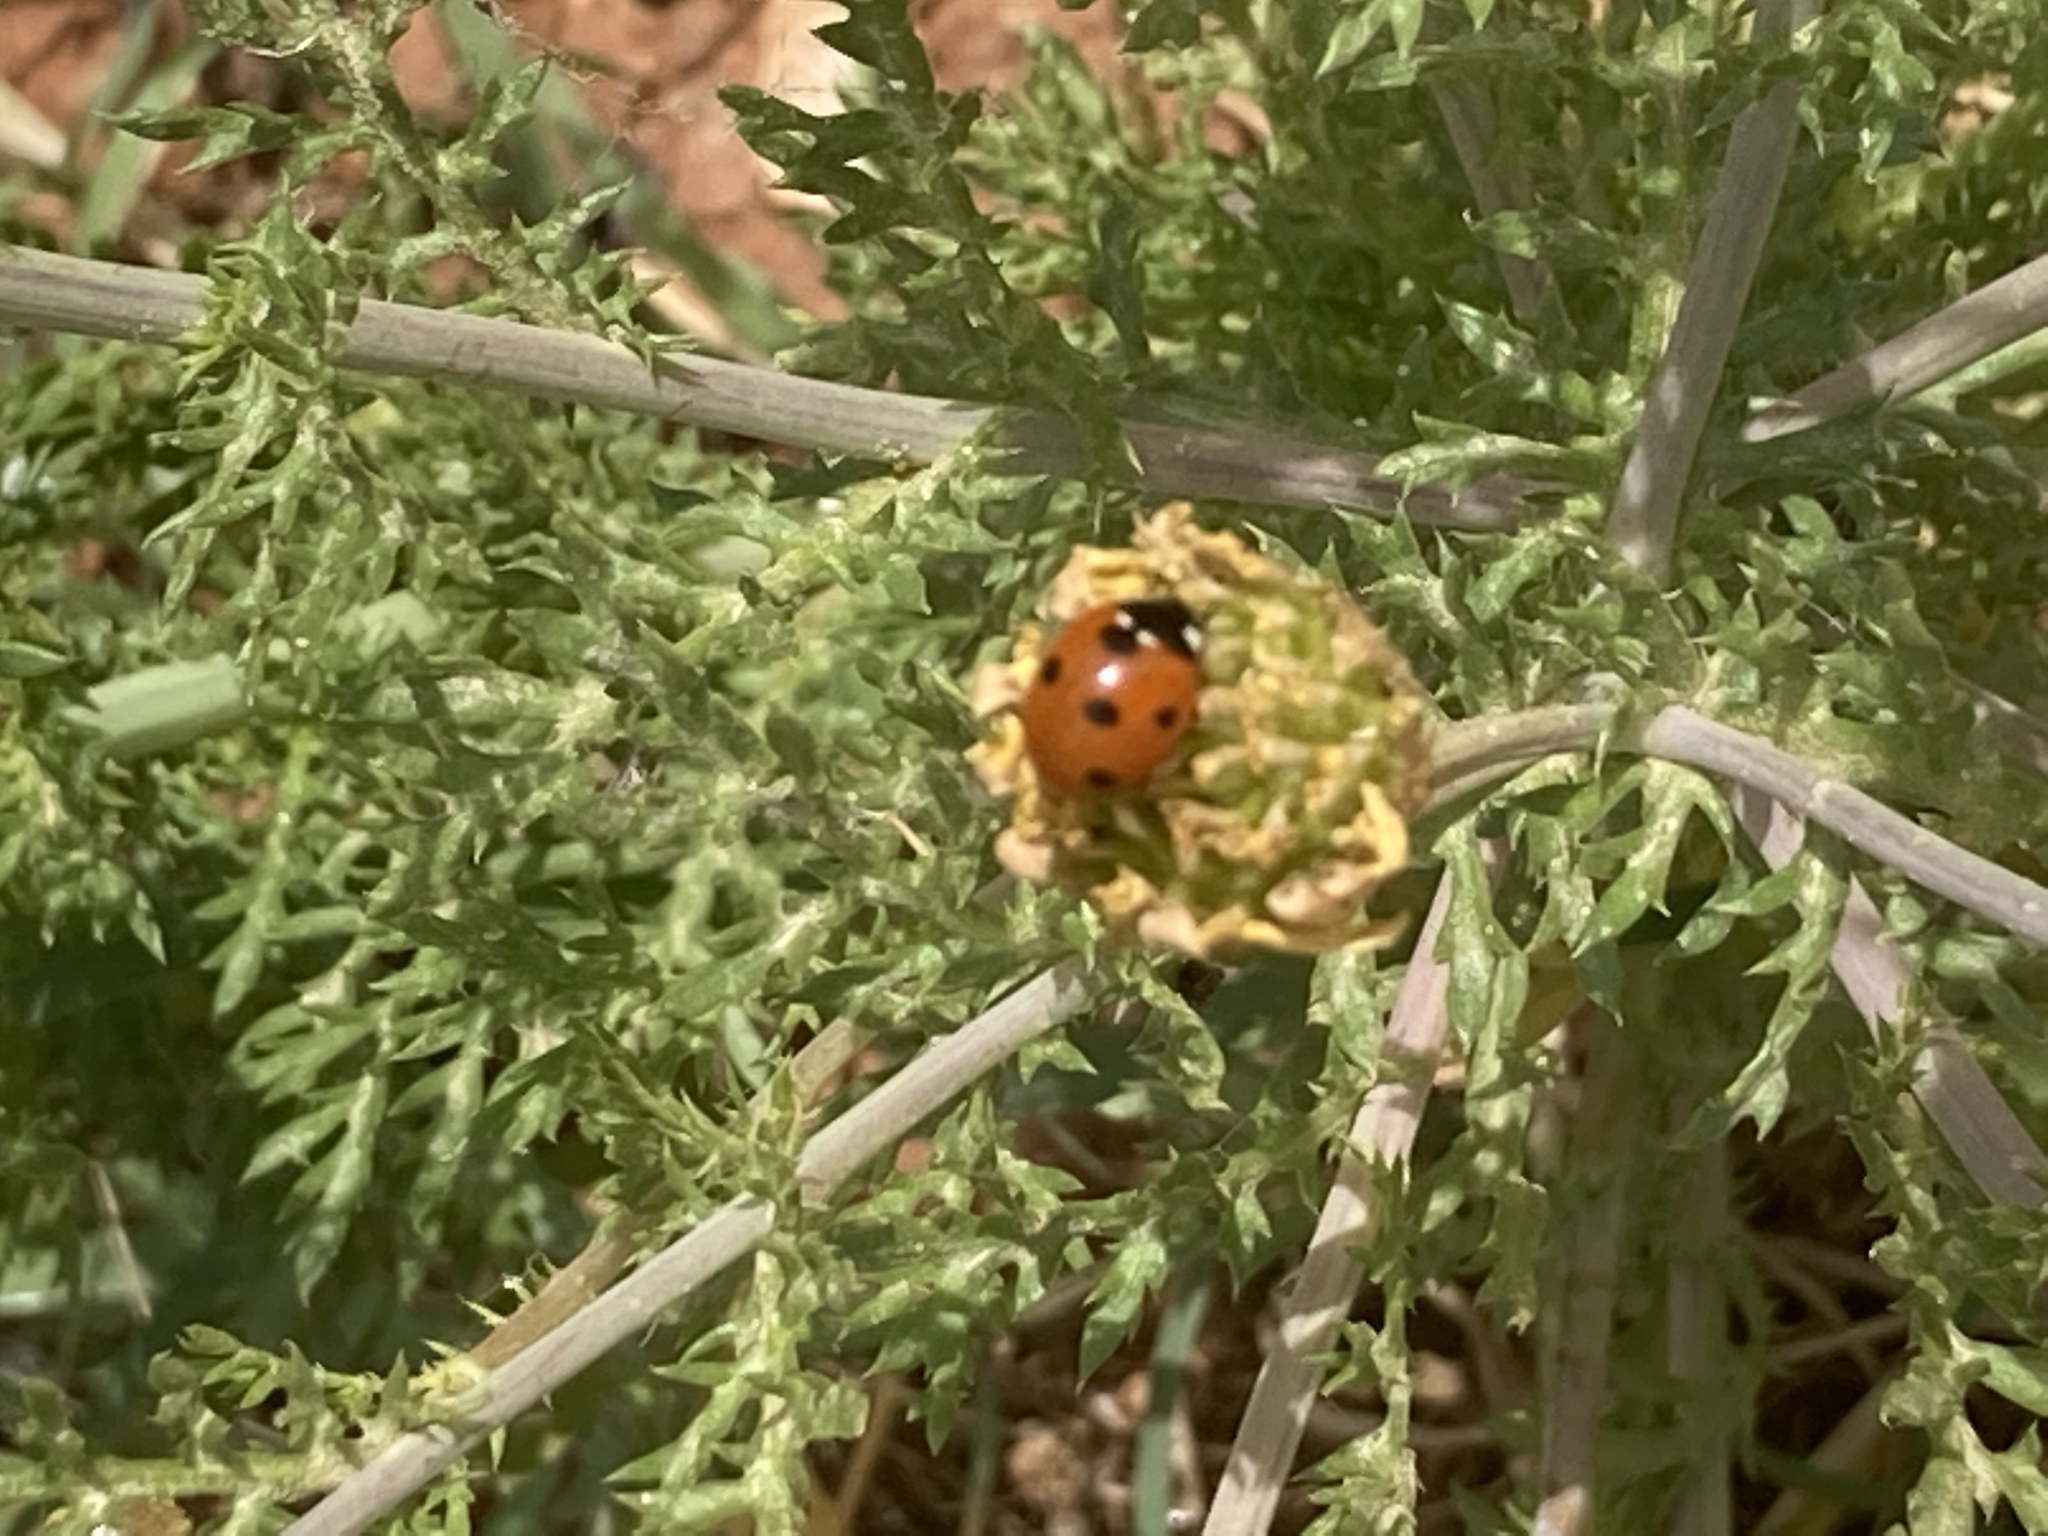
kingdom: Animalia
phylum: Arthropoda
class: Insecta
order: Coleoptera
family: Coccinellidae
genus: Coccinella
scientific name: Coccinella septempunctata
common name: Sevenspotted lady beetle
